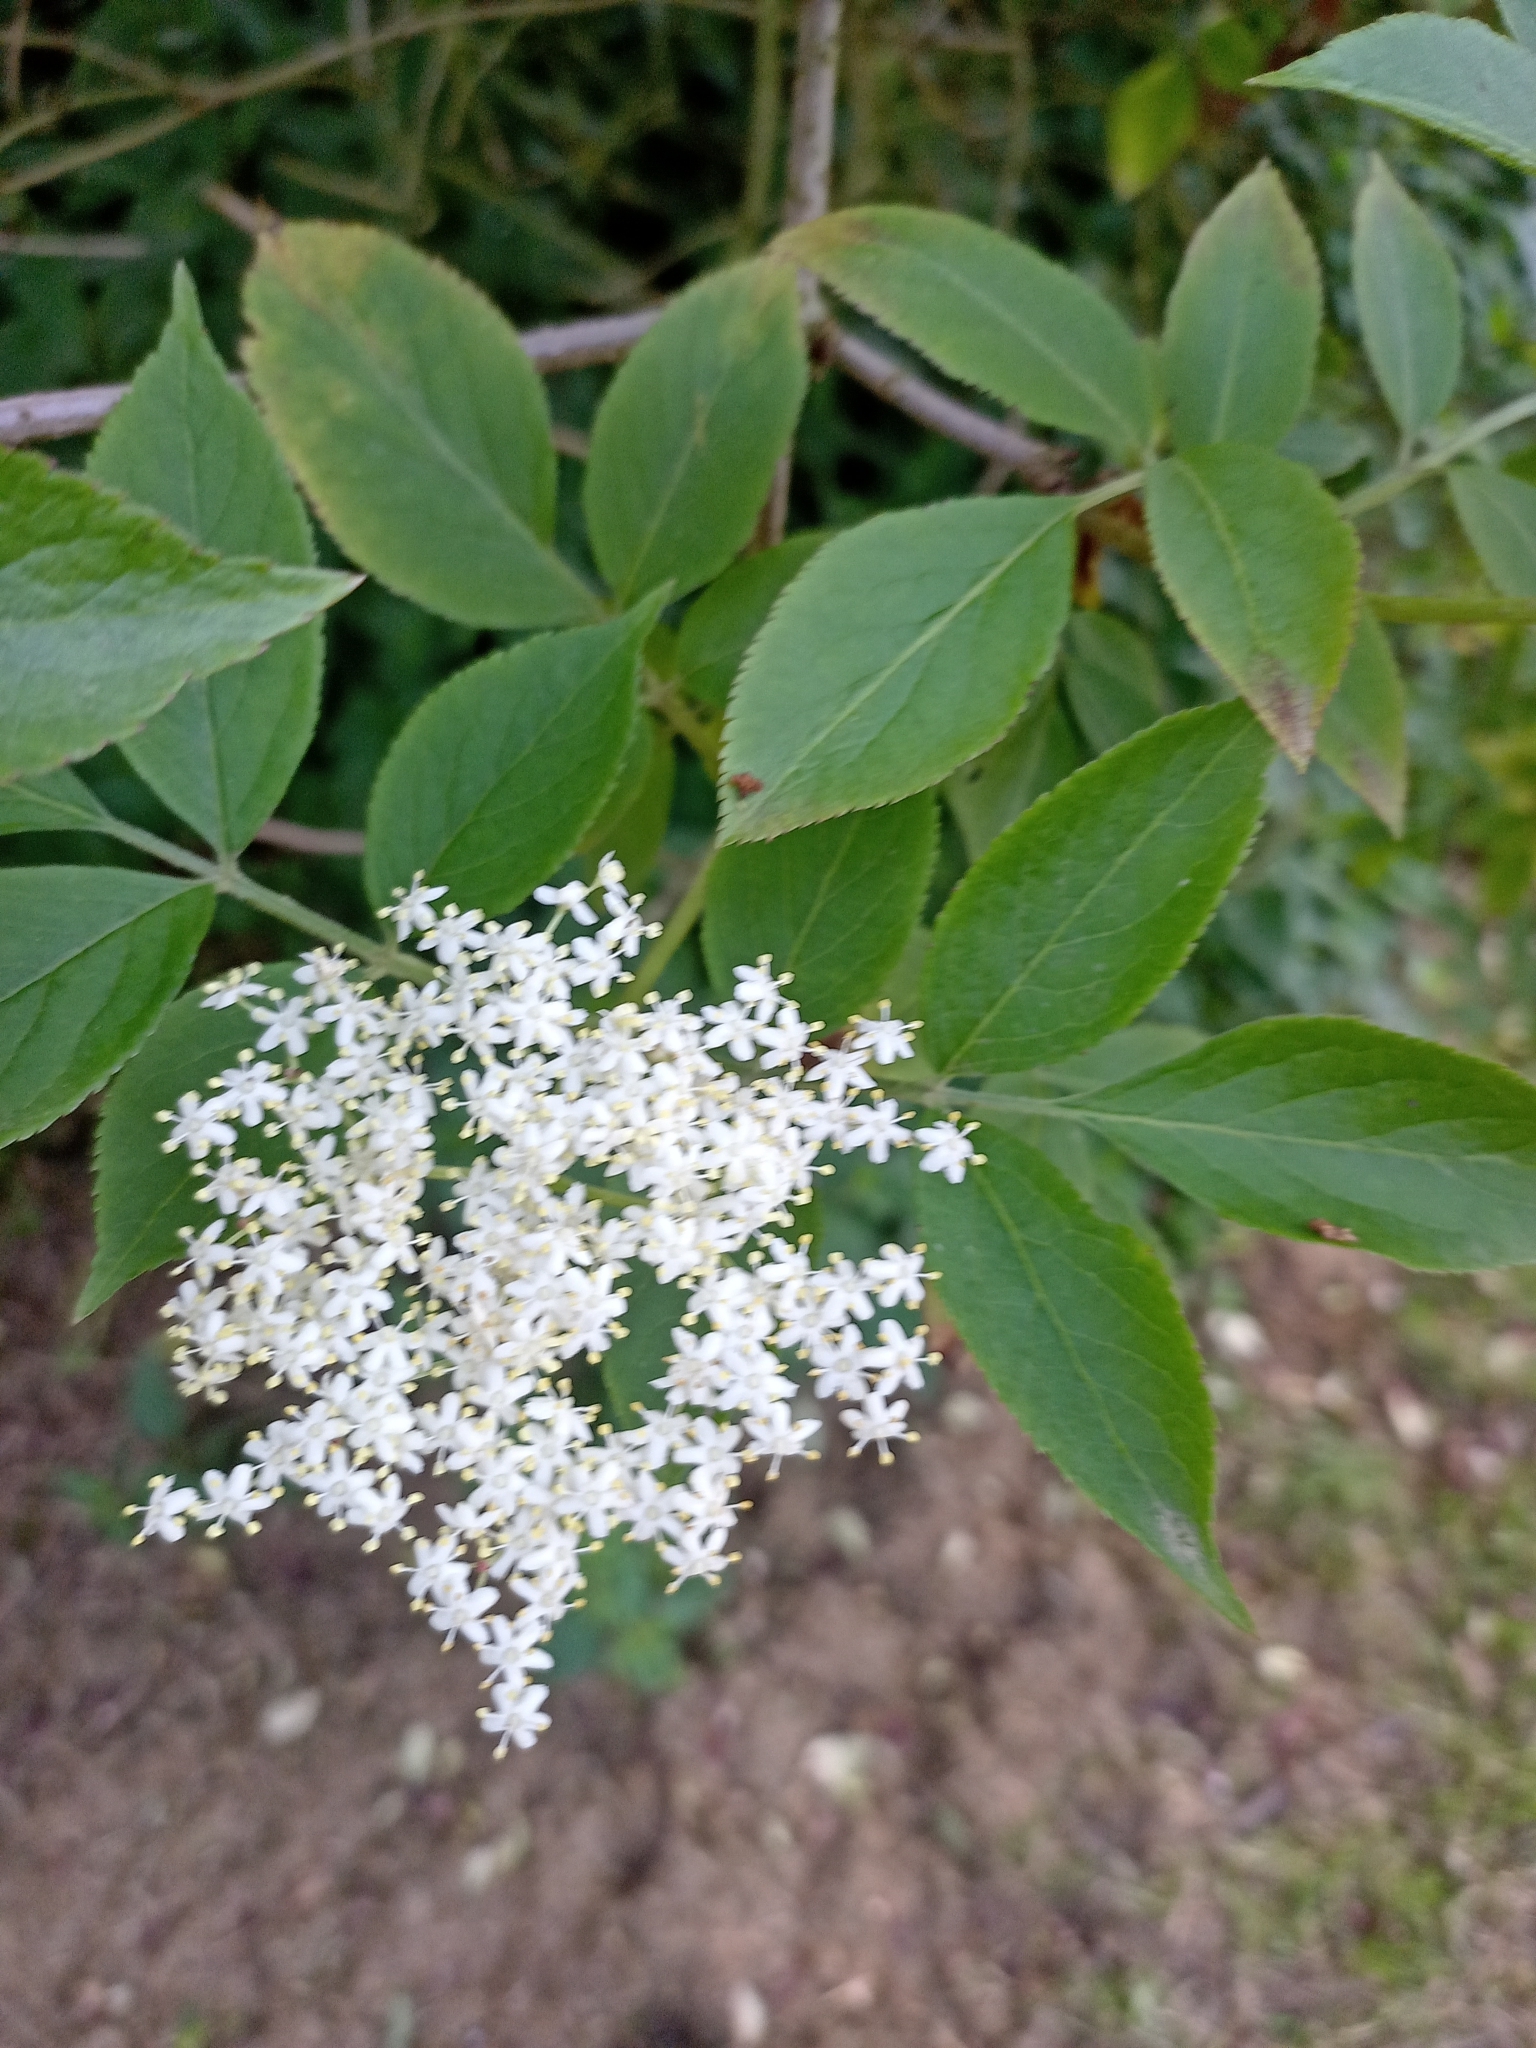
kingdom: Plantae
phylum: Tracheophyta
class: Magnoliopsida
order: Dipsacales
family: Viburnaceae
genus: Sambucus
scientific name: Sambucus nigra
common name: Elder
